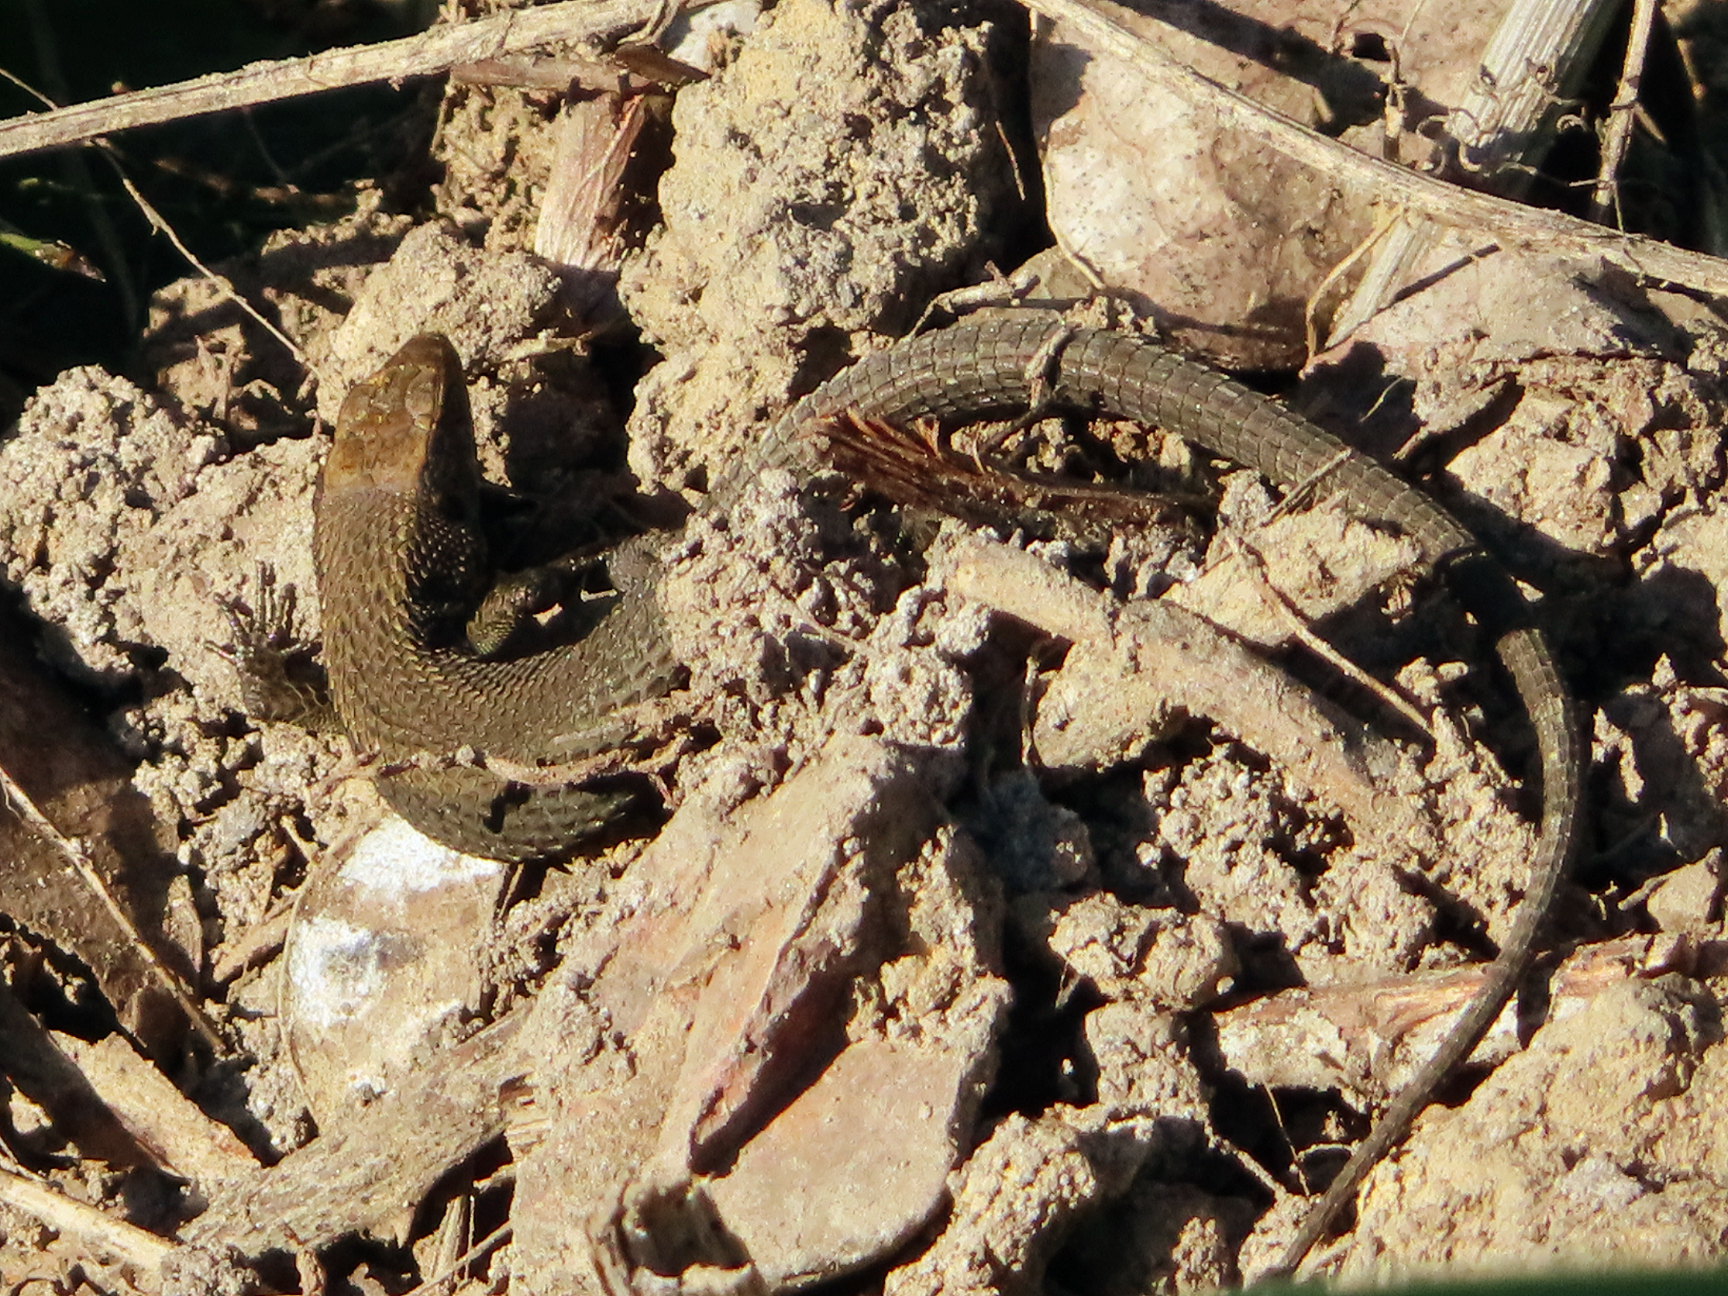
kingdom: Animalia
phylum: Chordata
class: Squamata
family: Lacertidae
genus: Algyroides
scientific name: Algyroides moreoticus
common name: Greek algyroides
